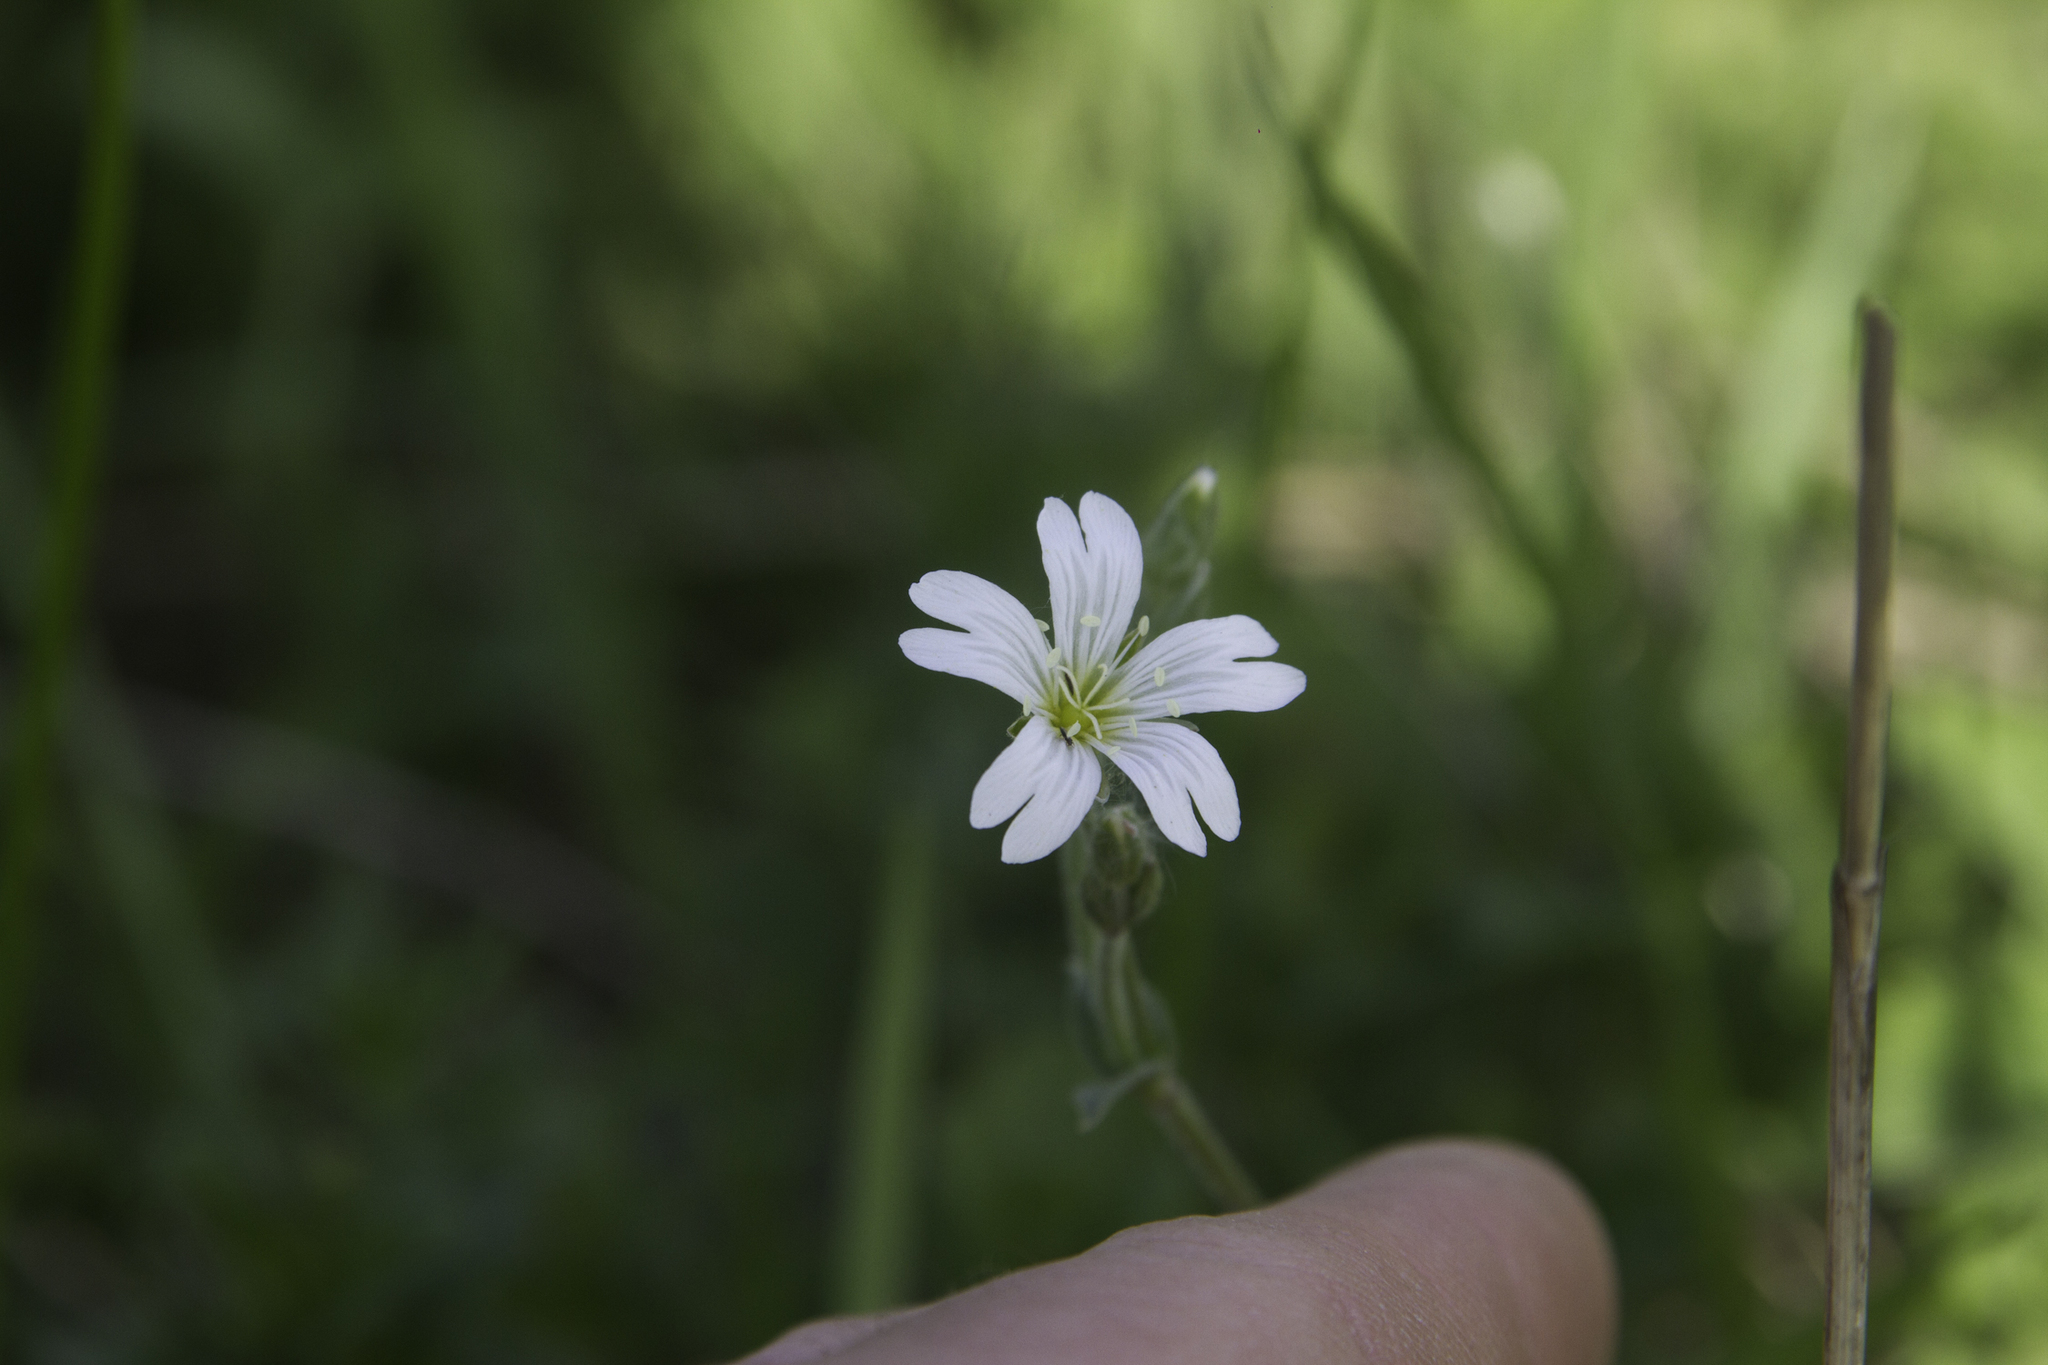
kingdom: Plantae
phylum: Tracheophyta
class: Magnoliopsida
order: Caryophyllales
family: Caryophyllaceae
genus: Cerastium
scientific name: Cerastium arvense
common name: Field mouse-ear
